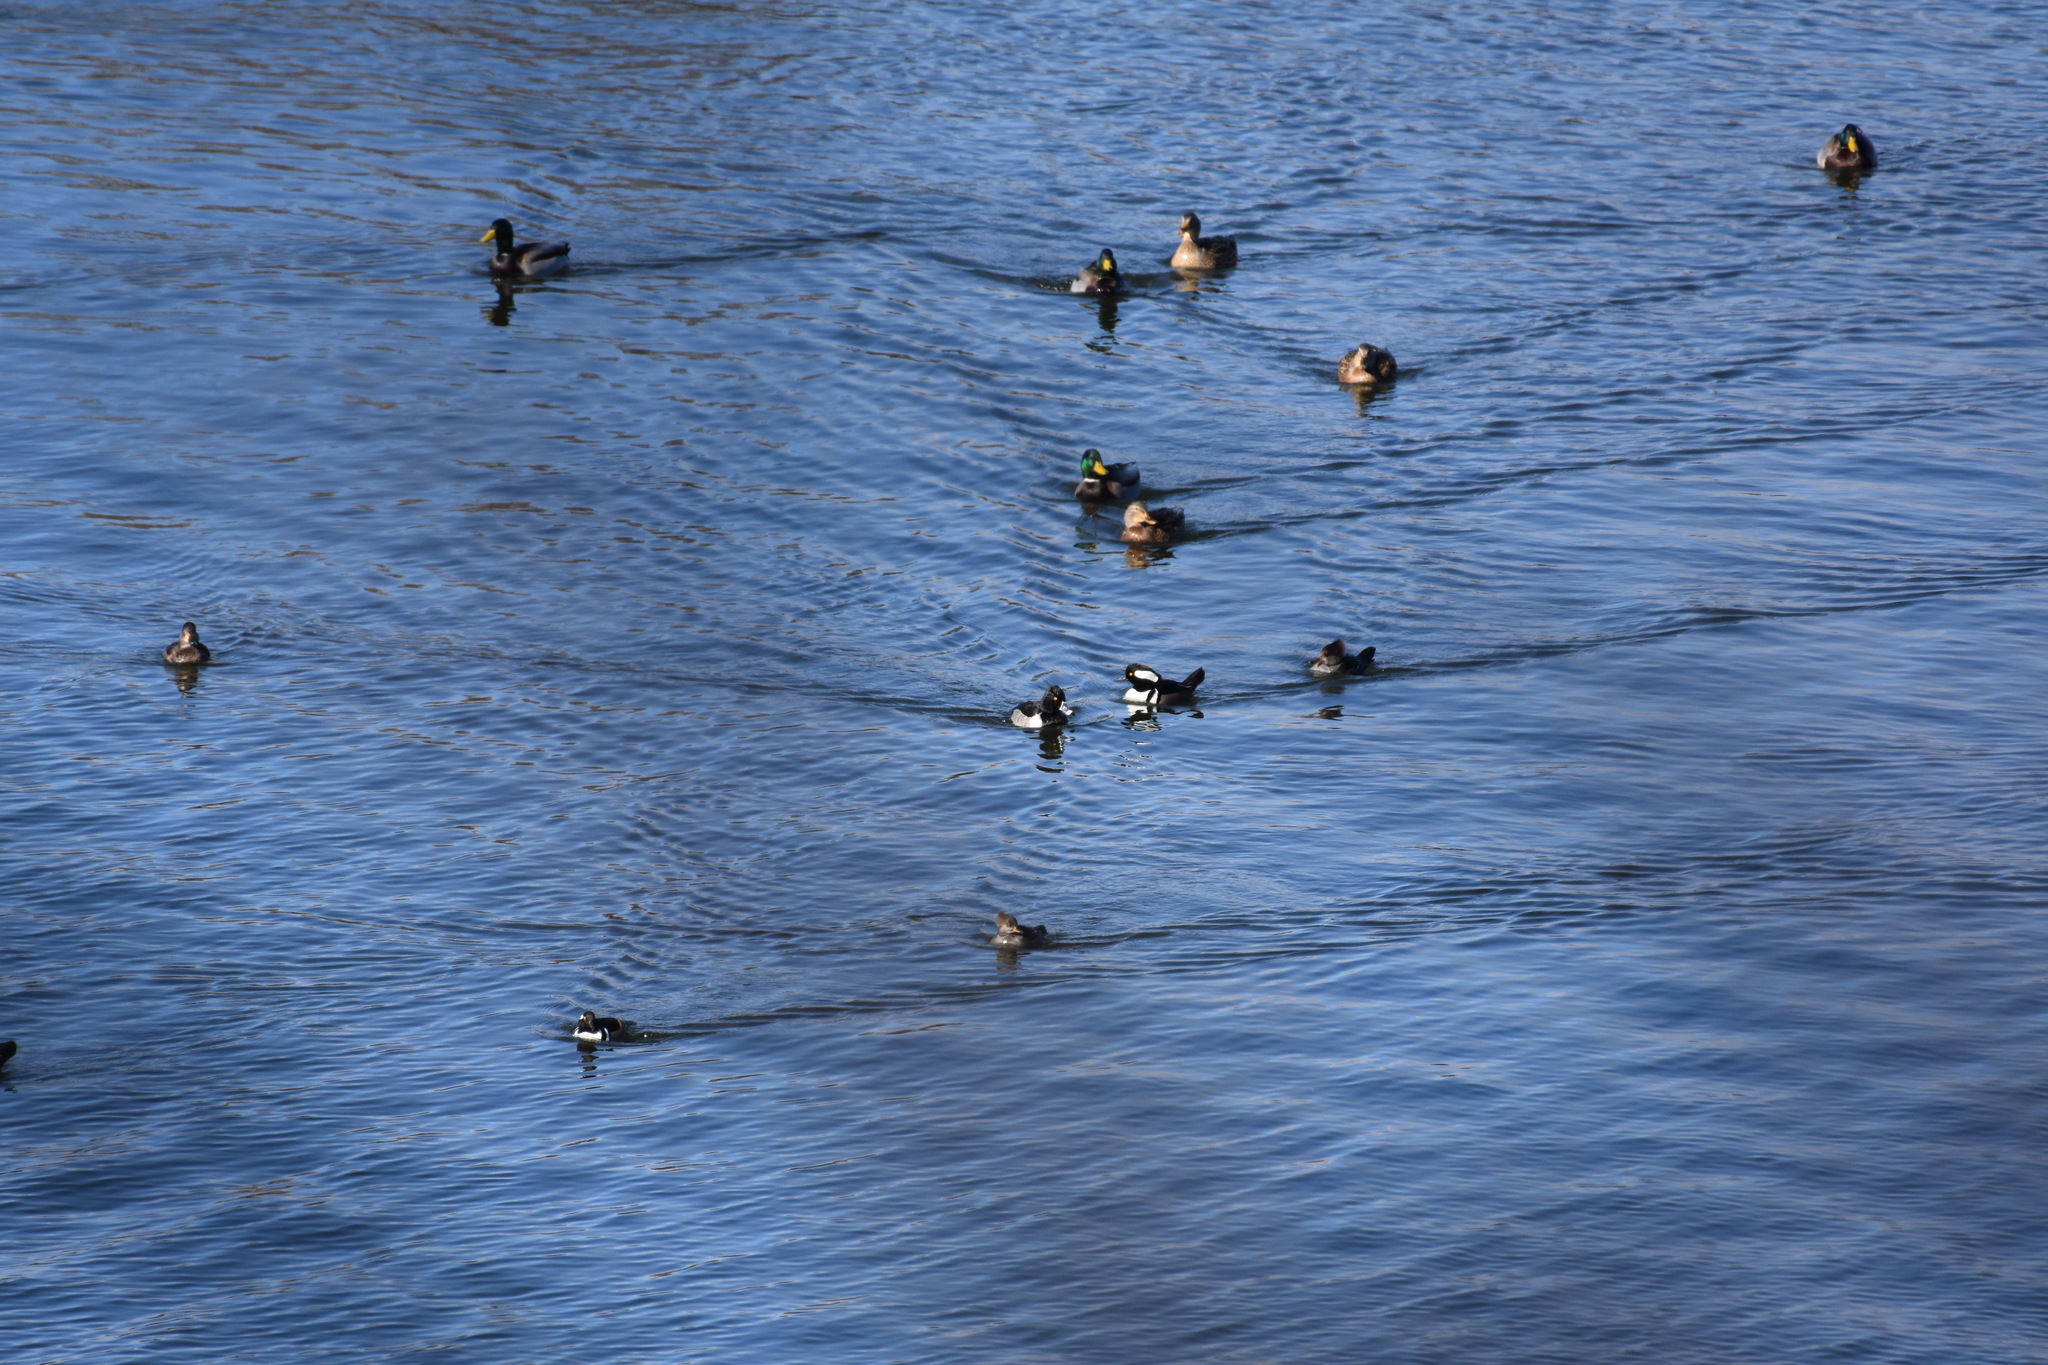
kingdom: Animalia
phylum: Chordata
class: Aves
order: Anseriformes
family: Anatidae
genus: Aythya
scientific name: Aythya collaris
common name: Ring-necked duck
